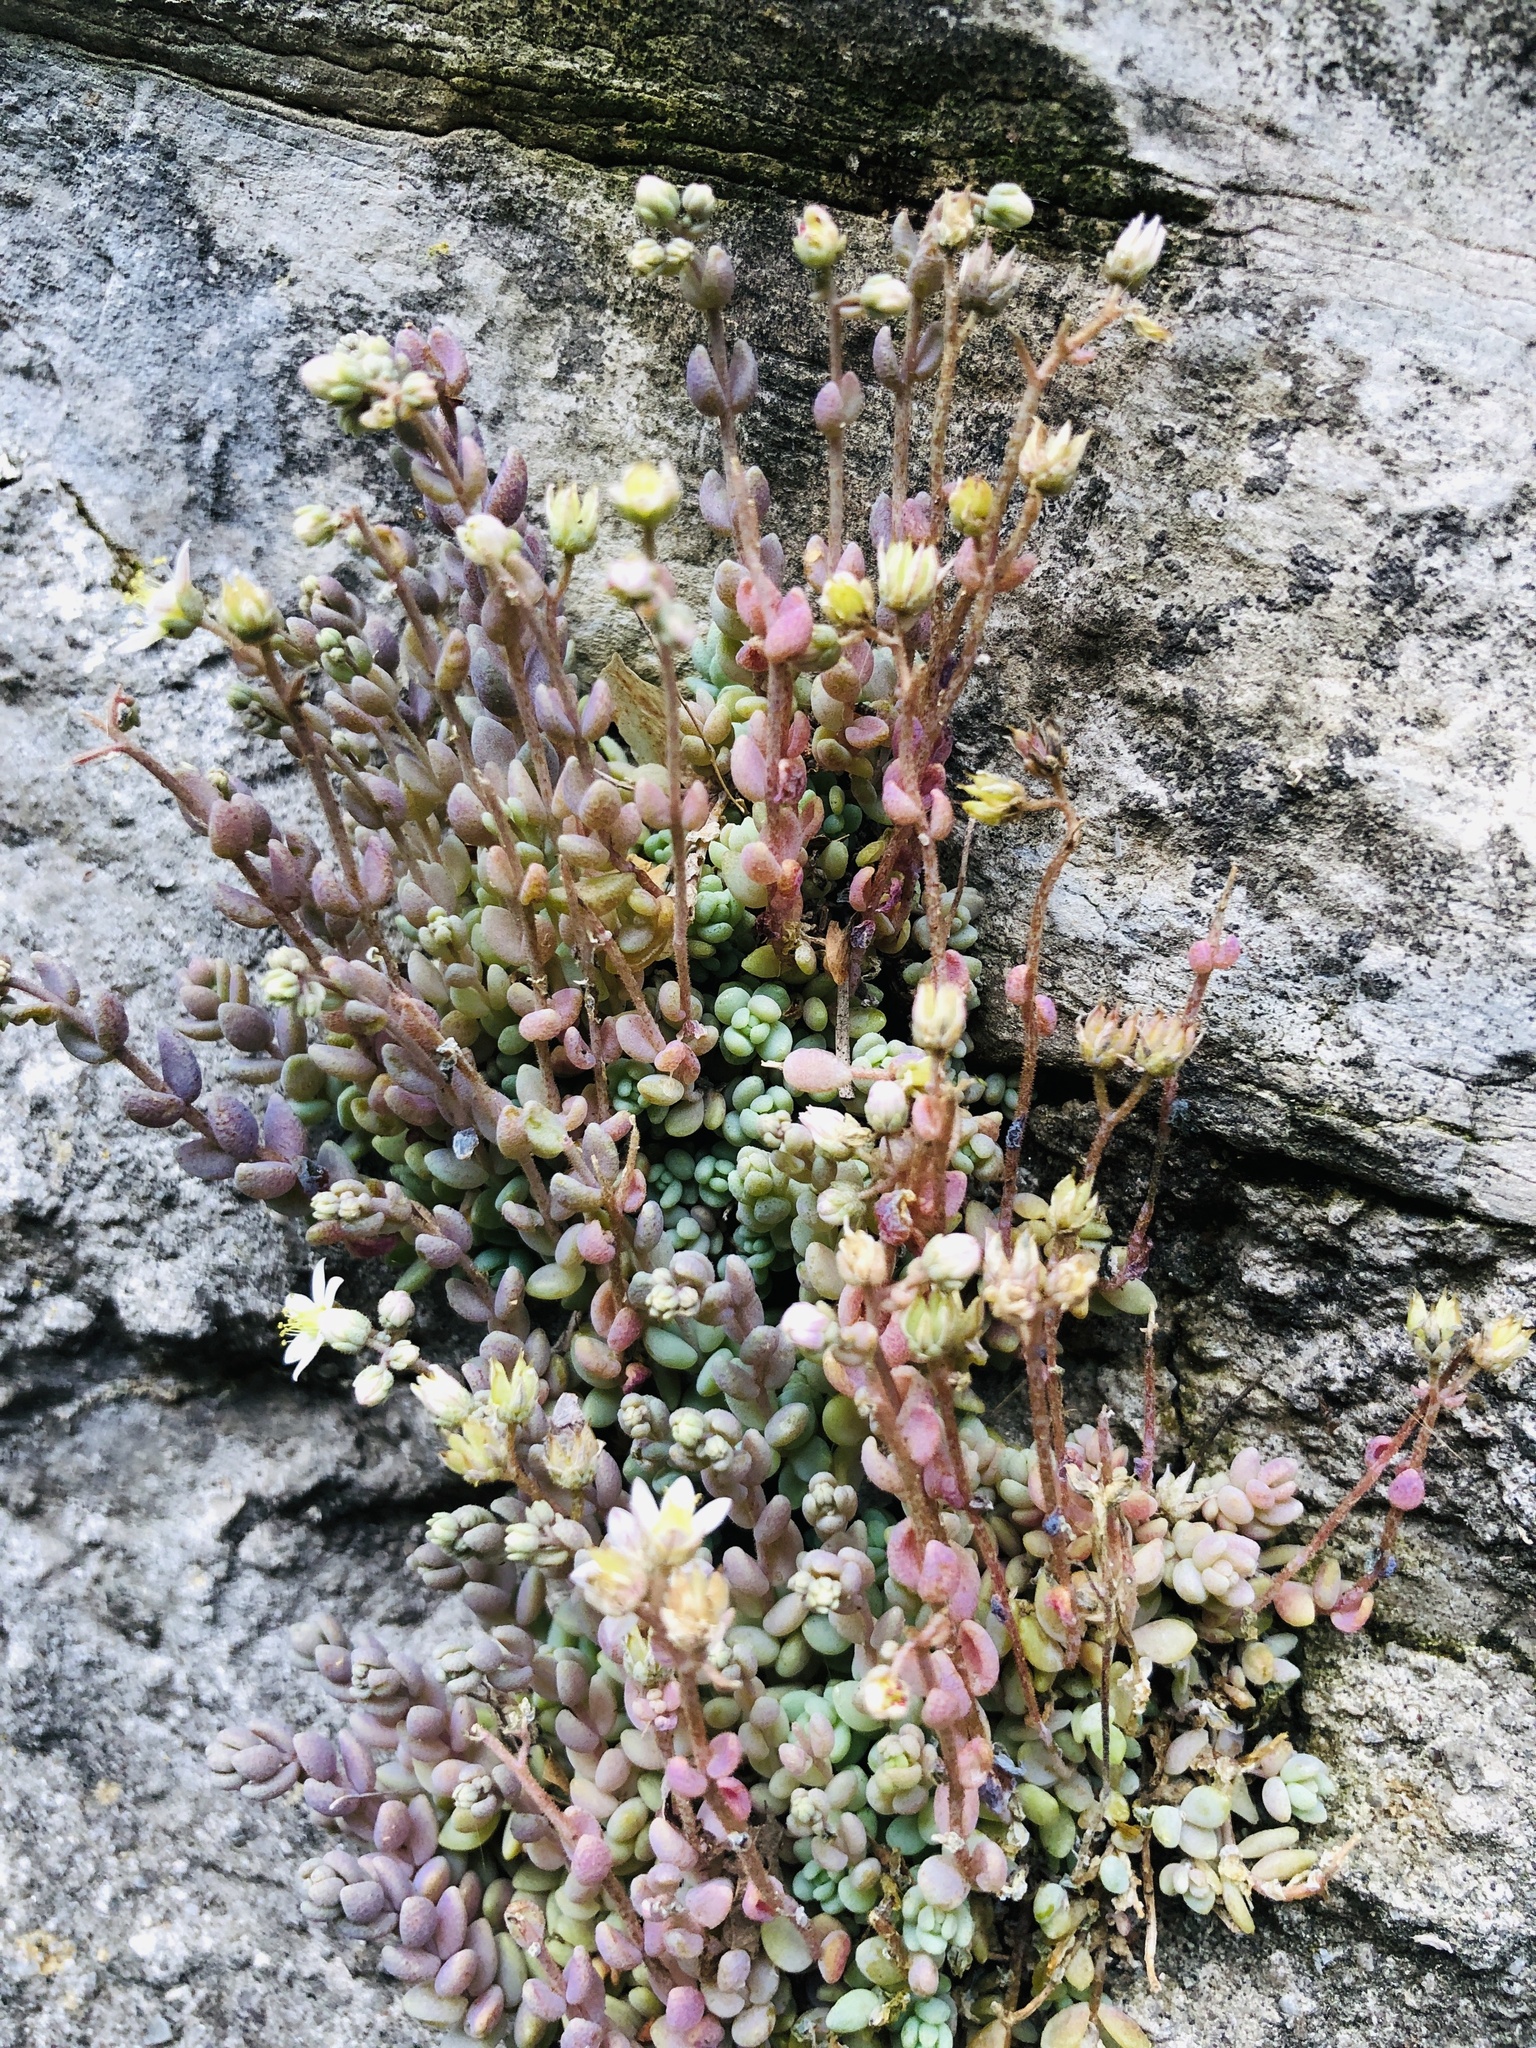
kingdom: Plantae
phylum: Tracheophyta
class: Magnoliopsida
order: Saxifragales
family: Crassulaceae
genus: Sedum
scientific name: Sedum dasyphyllum
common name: Thick-leaf stonecrop
